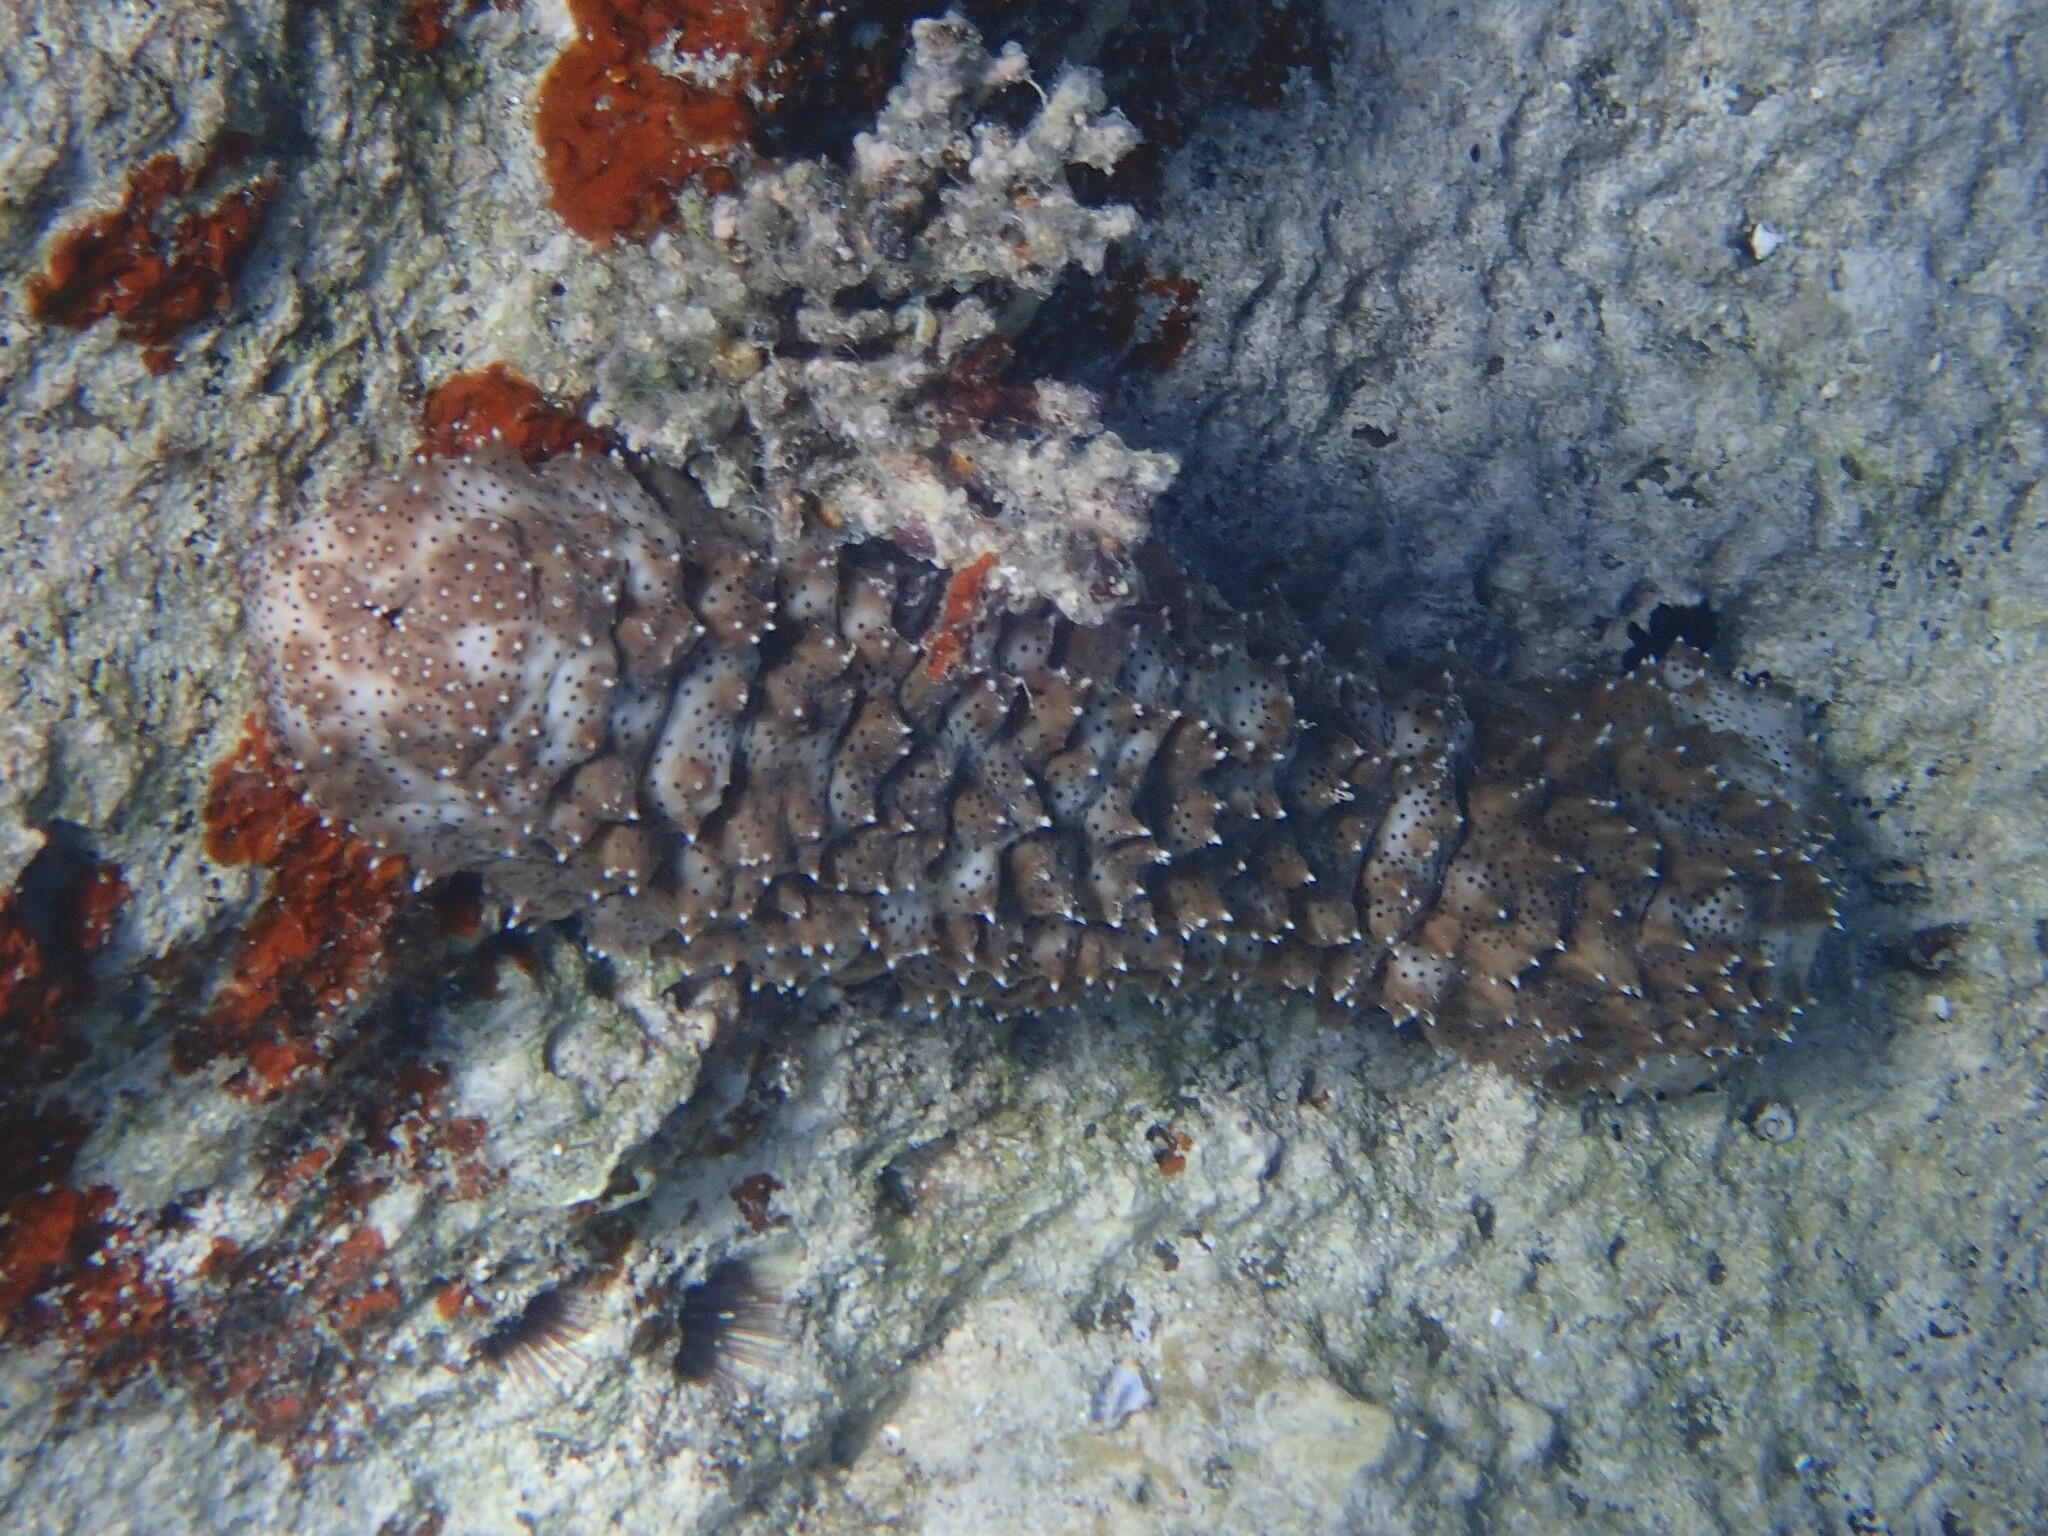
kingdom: Animalia
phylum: Echinodermata
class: Holothuroidea
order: Holothuriida
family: Holothuriidae
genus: Pearsonothuria
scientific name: Pearsonothuria graeffei
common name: Blackspotted sea cucumber
